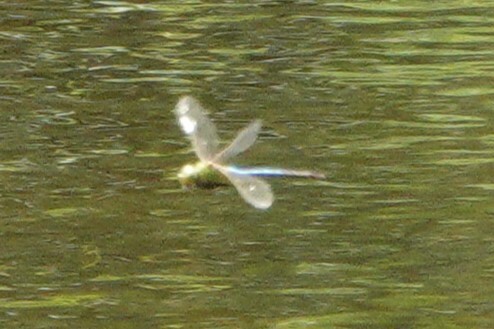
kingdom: Animalia
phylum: Arthropoda
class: Insecta
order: Odonata
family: Aeshnidae
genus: Anax
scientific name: Anax junius
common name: Common green darner
